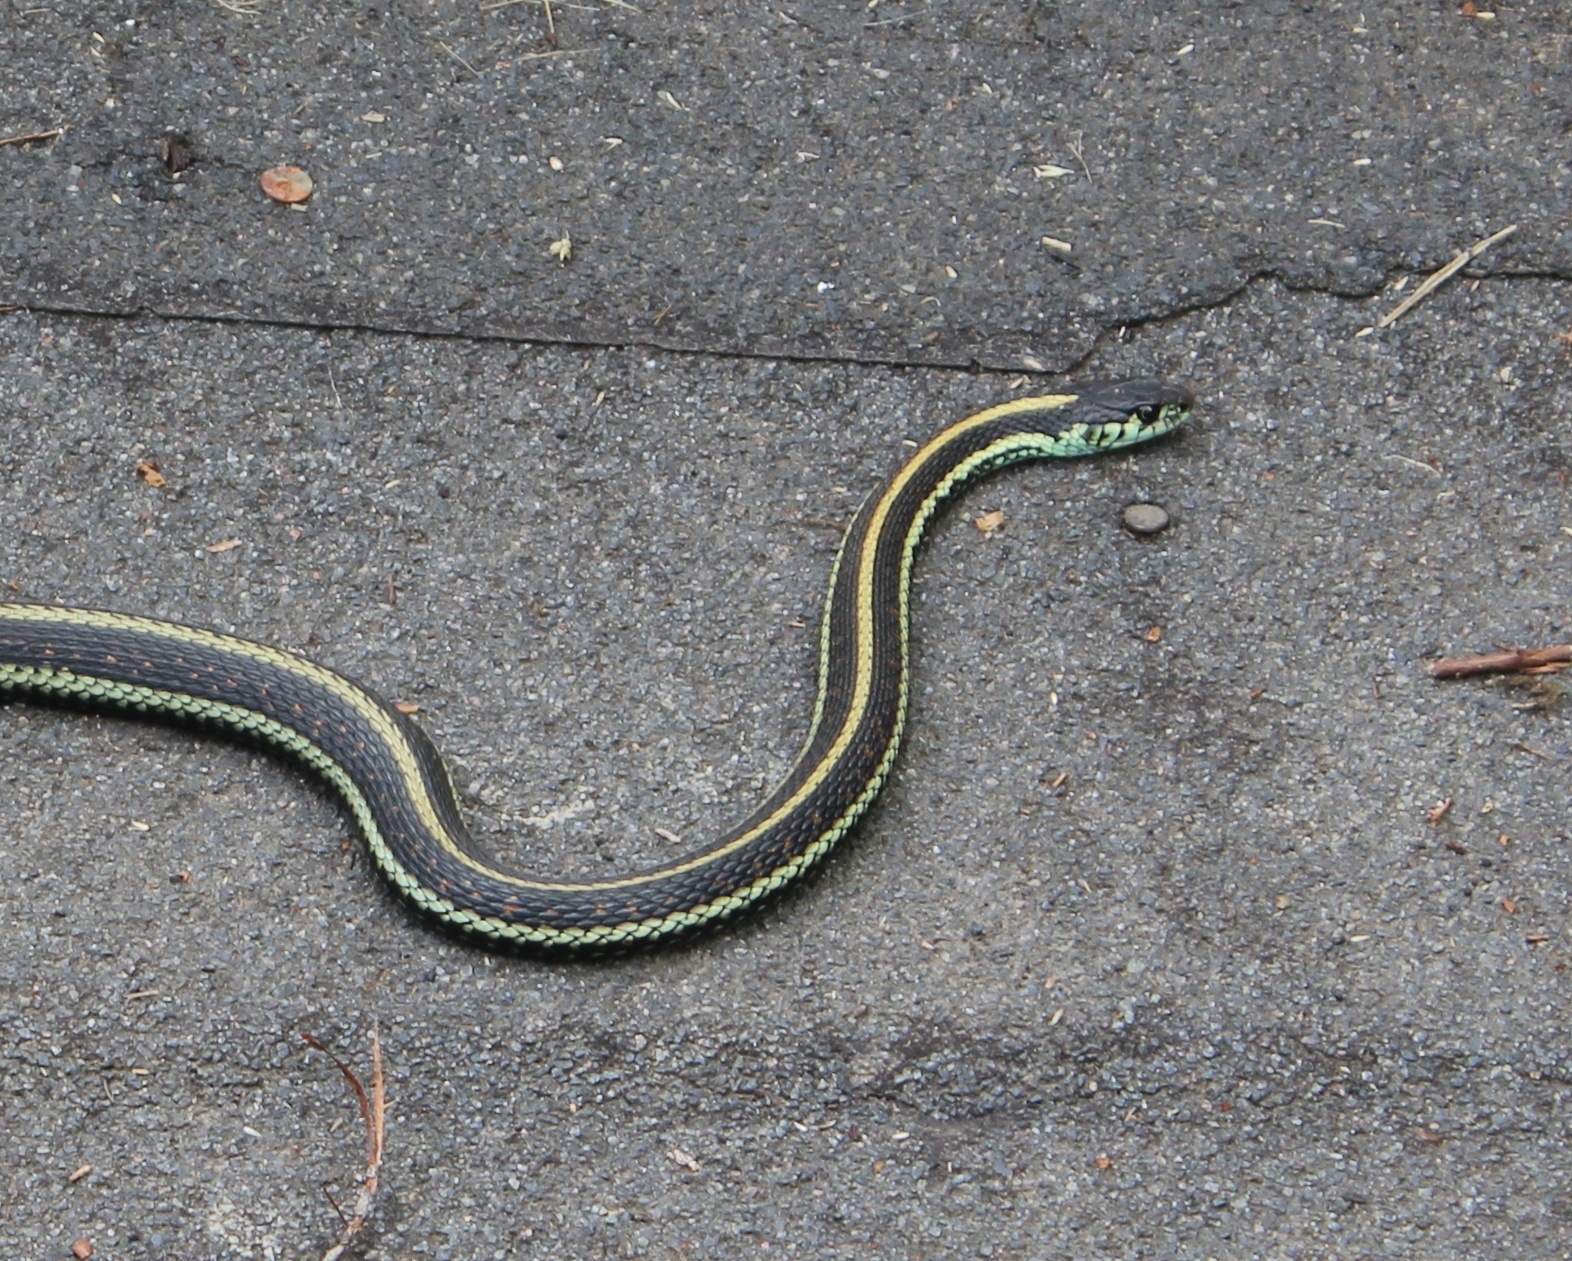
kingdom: Animalia
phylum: Chordata
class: Squamata
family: Colubridae
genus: Thamnophis
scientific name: Thamnophis sirtalis
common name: Common garter snake
